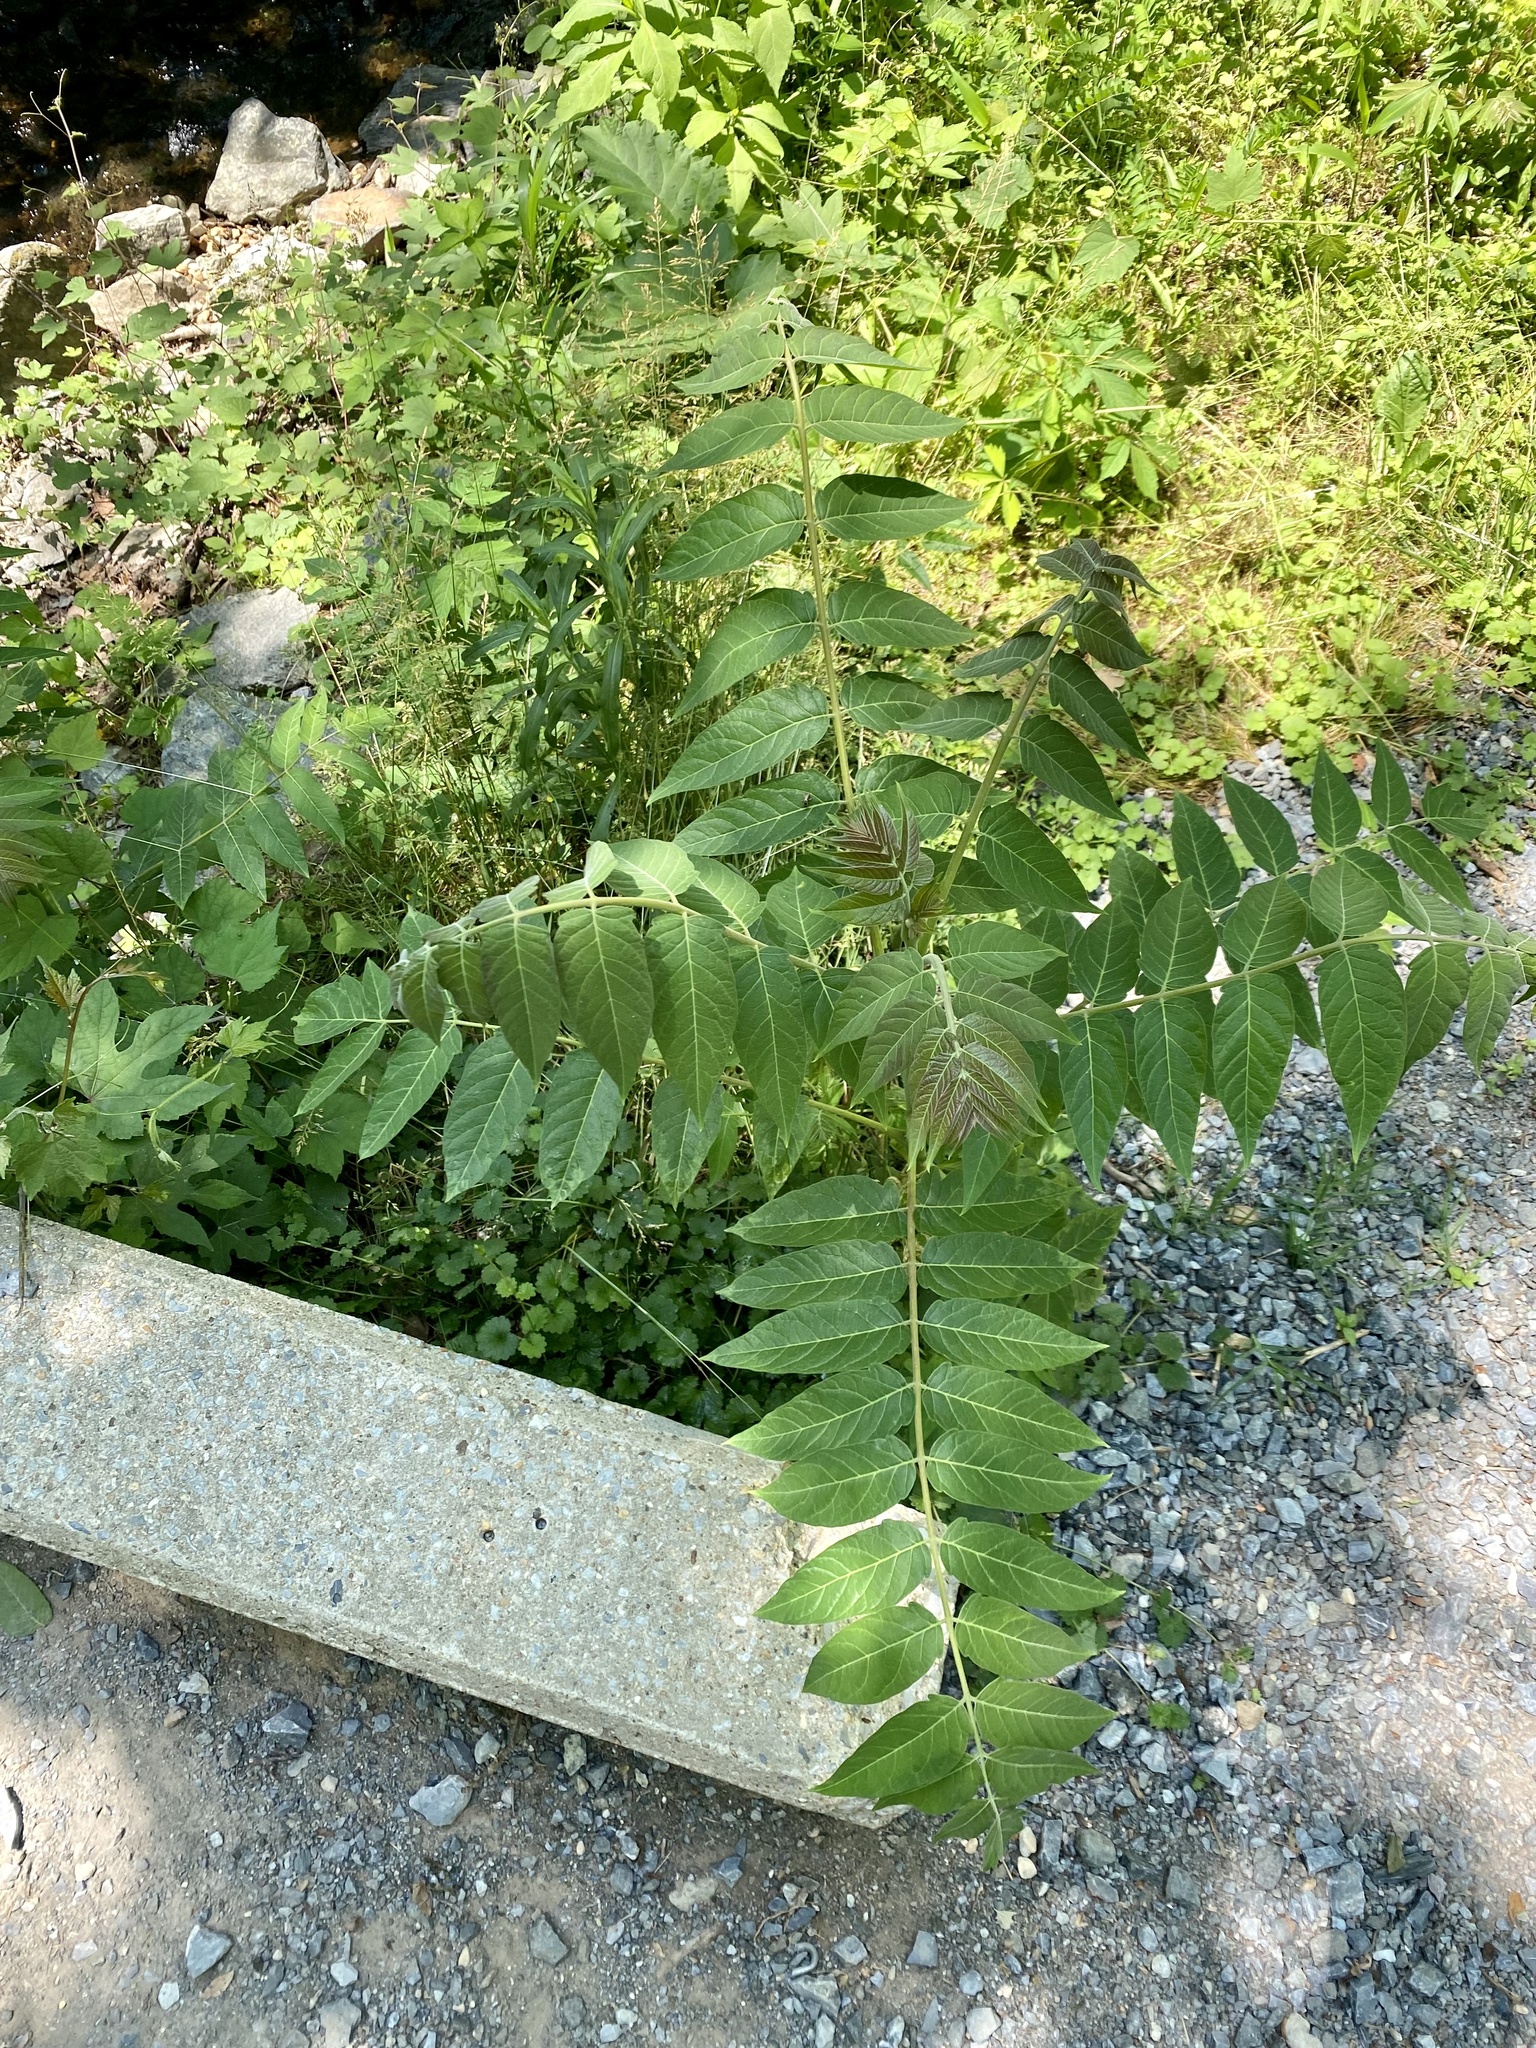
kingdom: Plantae
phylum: Tracheophyta
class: Magnoliopsida
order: Sapindales
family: Simaroubaceae
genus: Ailanthus
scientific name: Ailanthus altissima
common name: Tree-of-heaven
